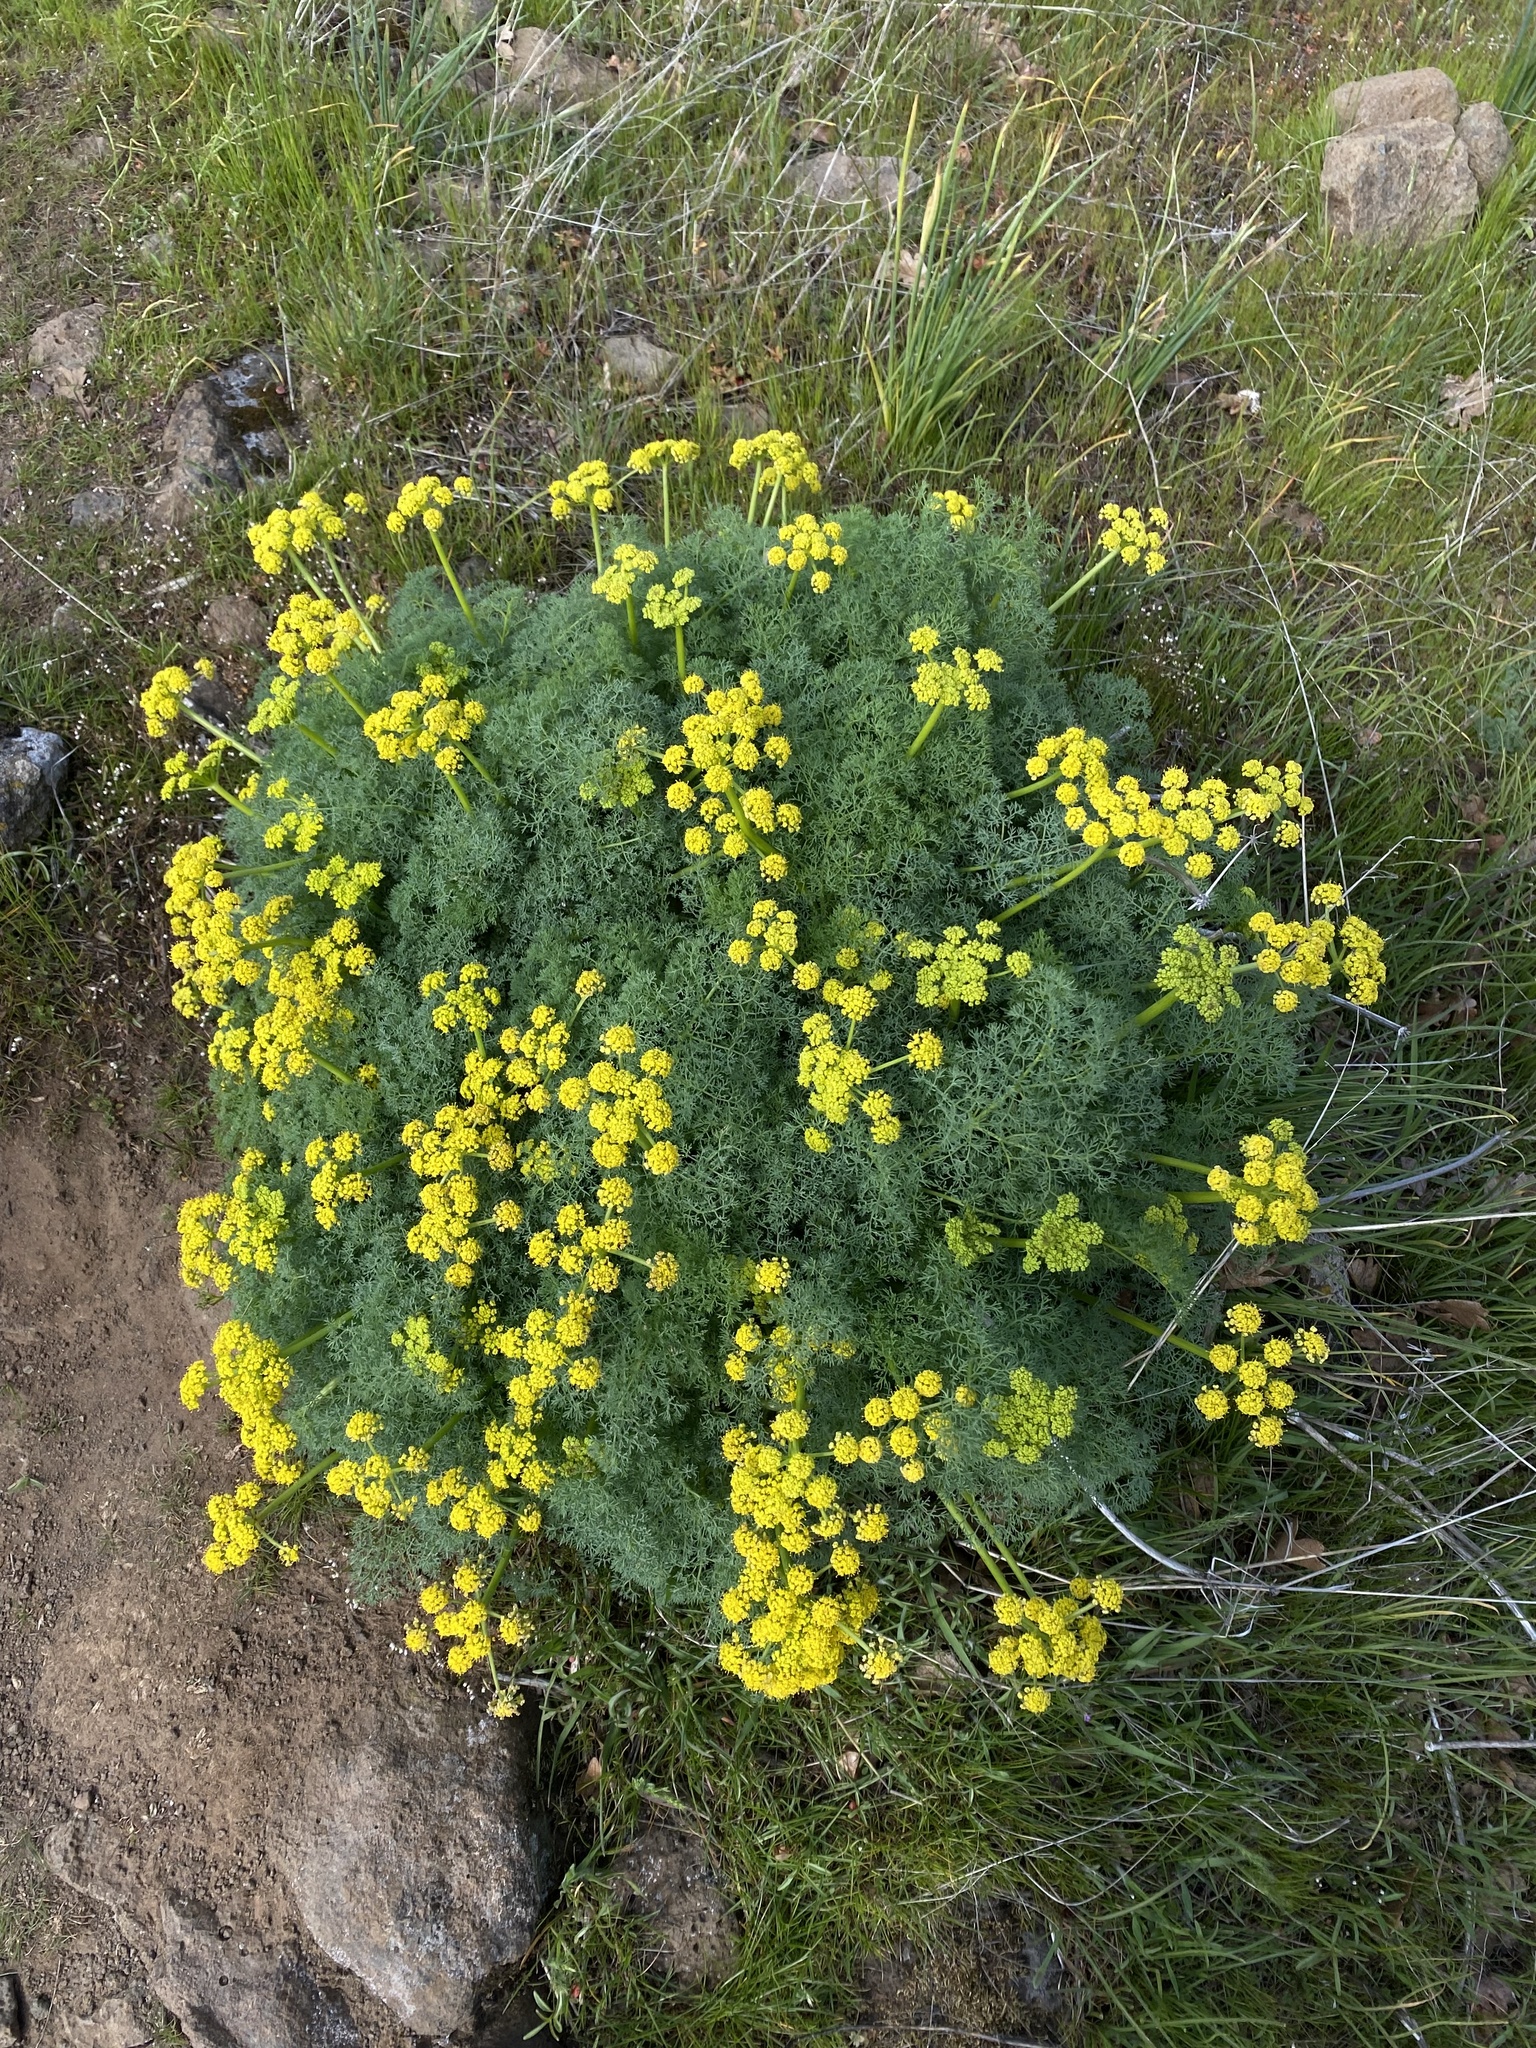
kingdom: Plantae
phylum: Tracheophyta
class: Magnoliopsida
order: Apiales
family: Apiaceae
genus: Lomatium
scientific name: Lomatium papilioniferum
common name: Butterfly lomatium
